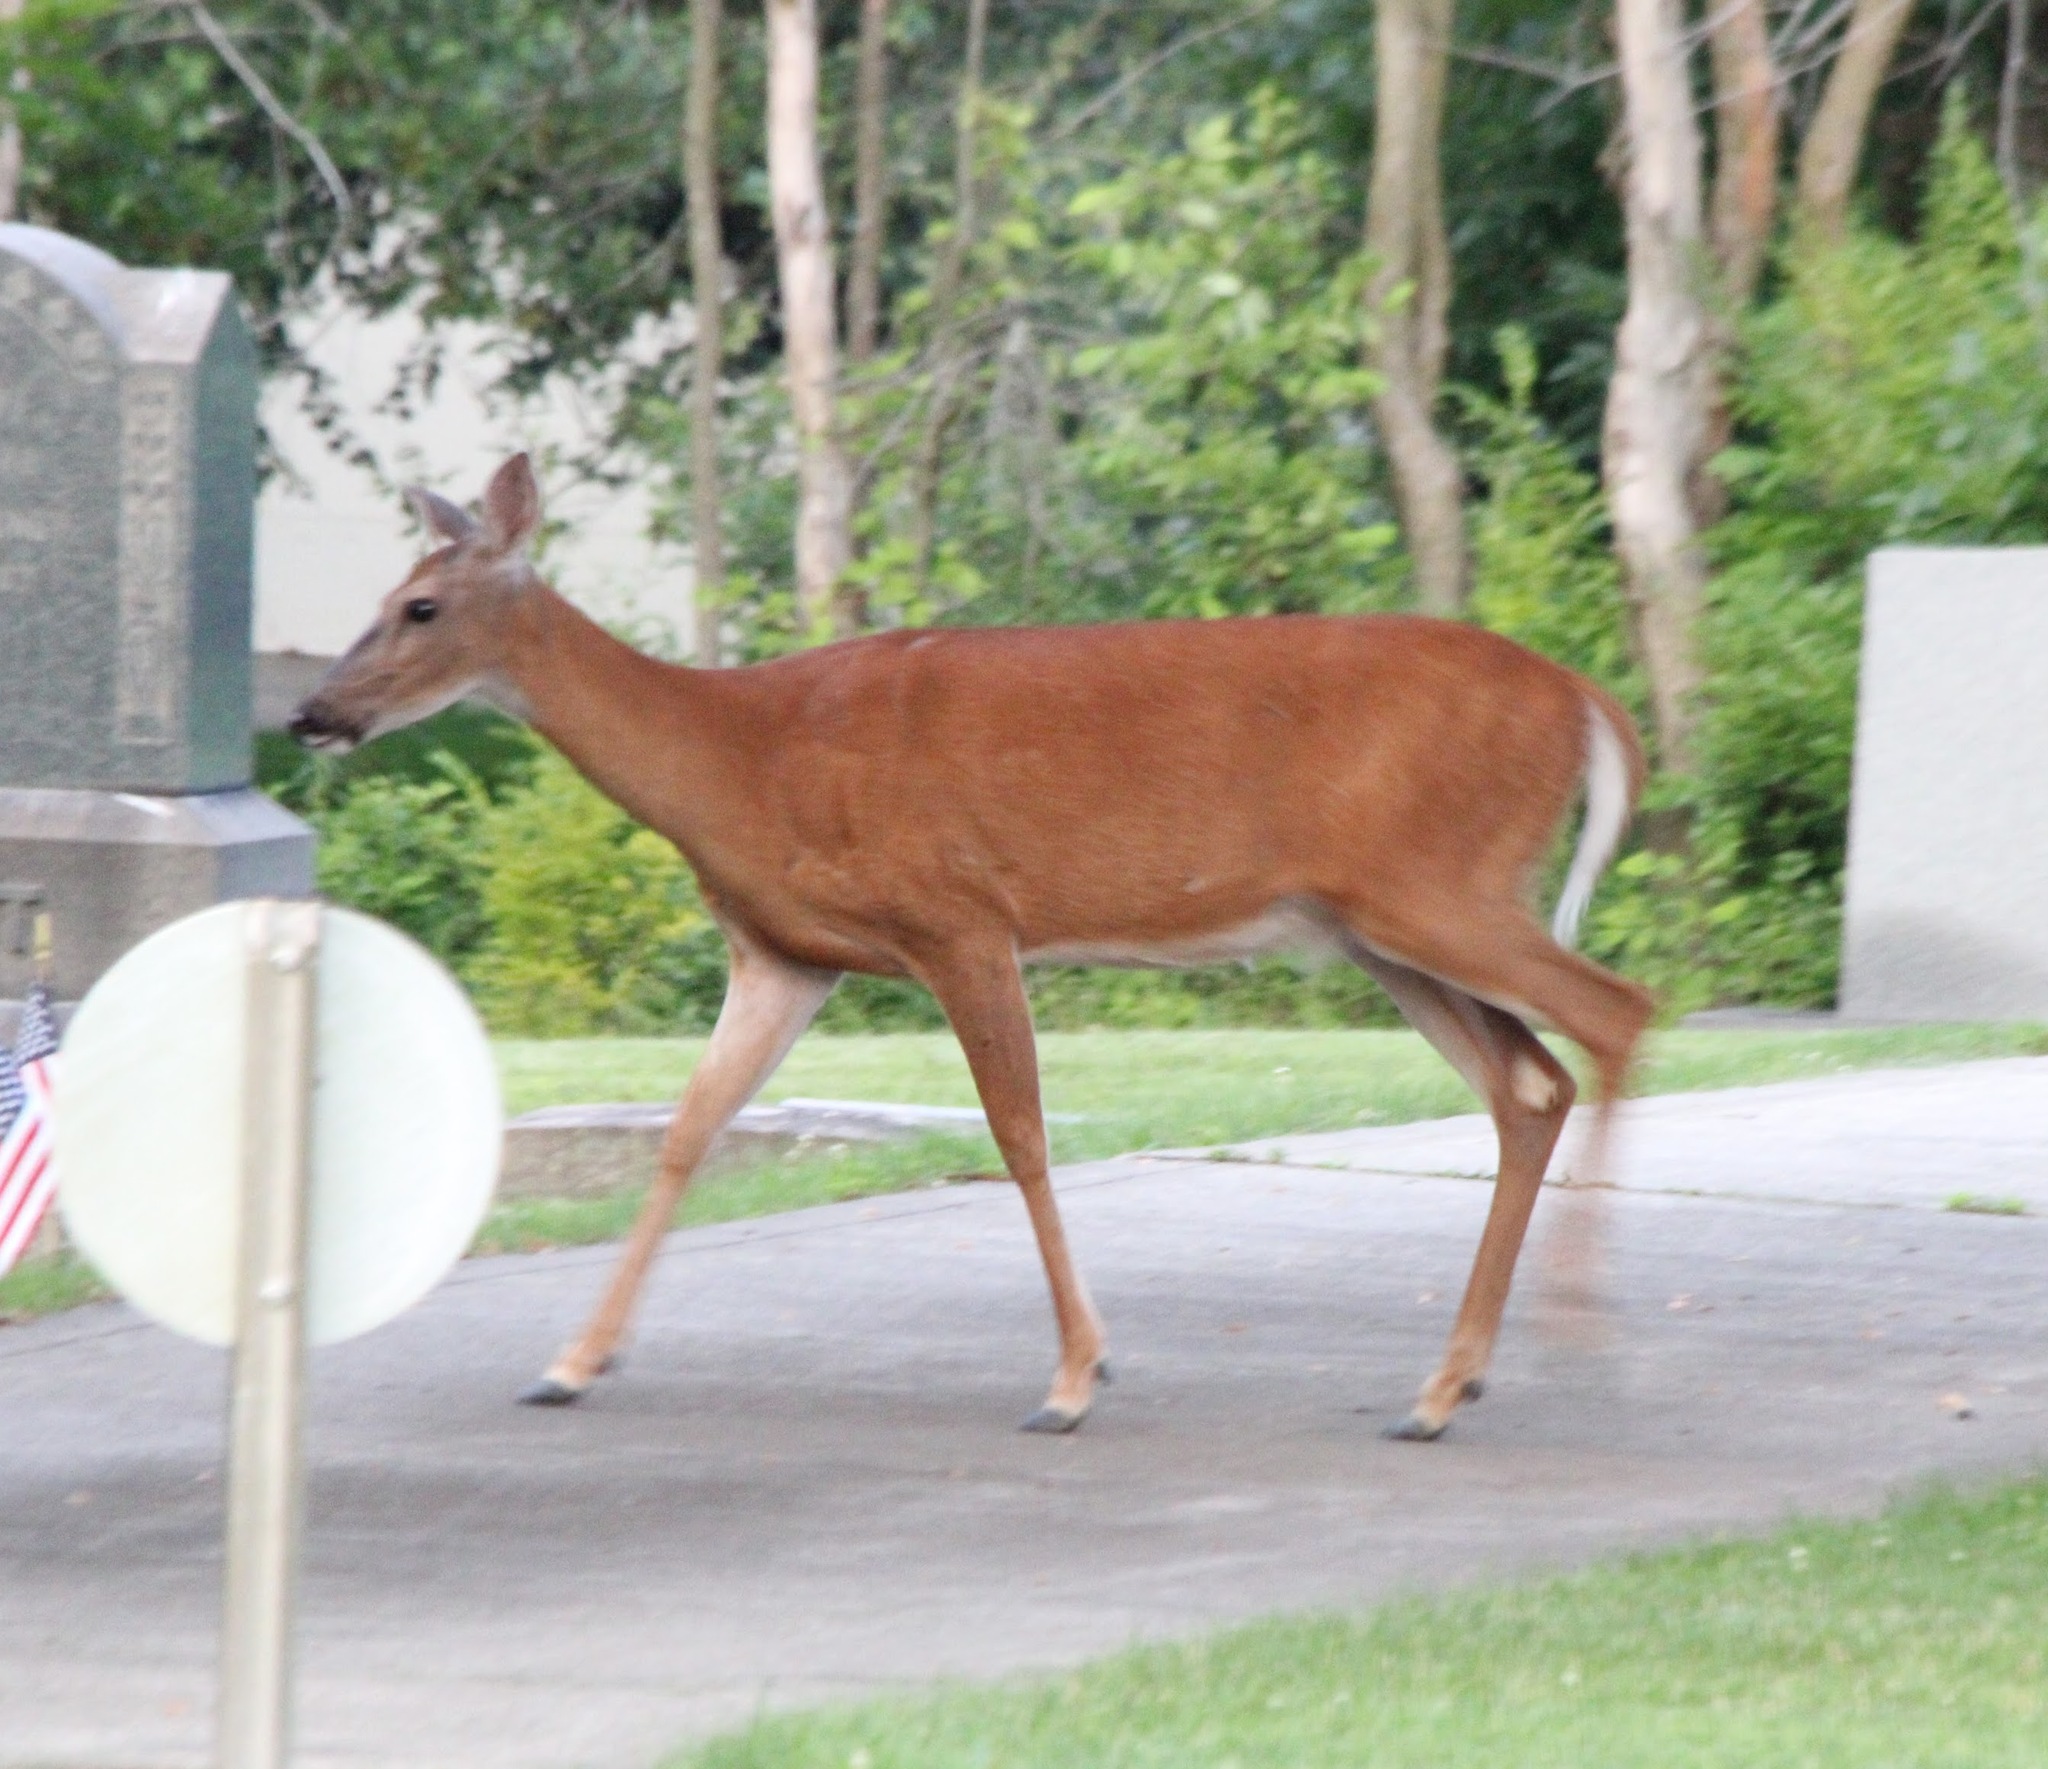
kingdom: Animalia
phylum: Chordata
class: Mammalia
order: Artiodactyla
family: Cervidae
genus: Odocoileus
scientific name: Odocoileus virginianus
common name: White-tailed deer
